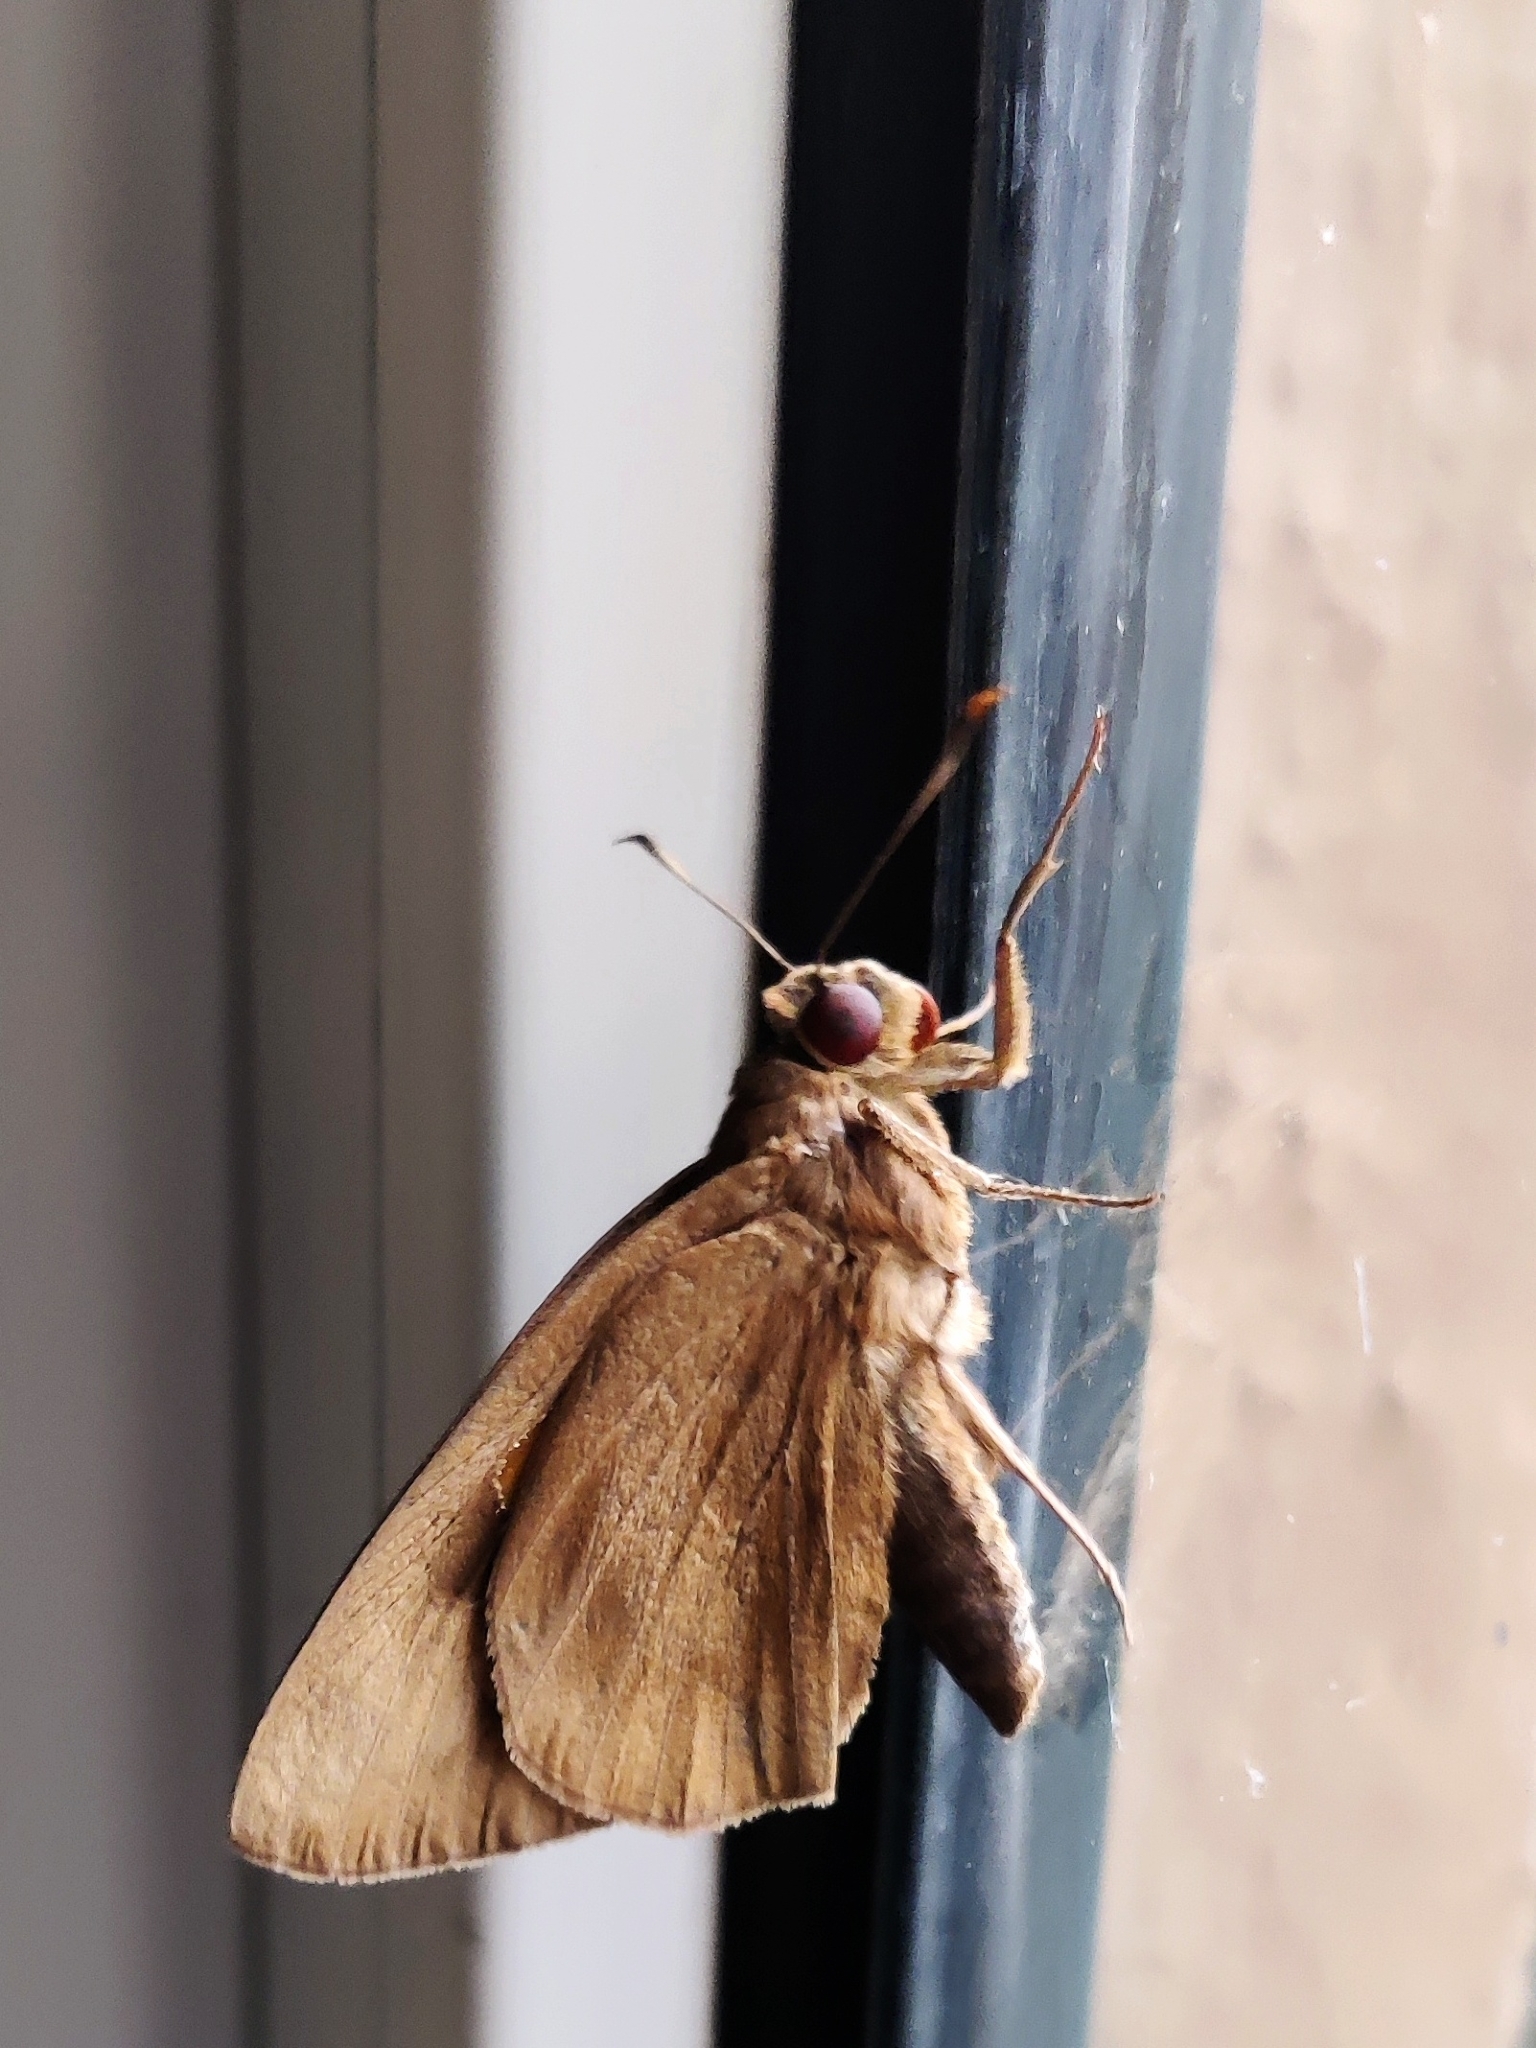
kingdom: Animalia
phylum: Arthropoda
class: Insecta
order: Lepidoptera
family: Hesperiidae
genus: Erionota
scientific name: Erionota torus
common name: Rounded palm-redeye
